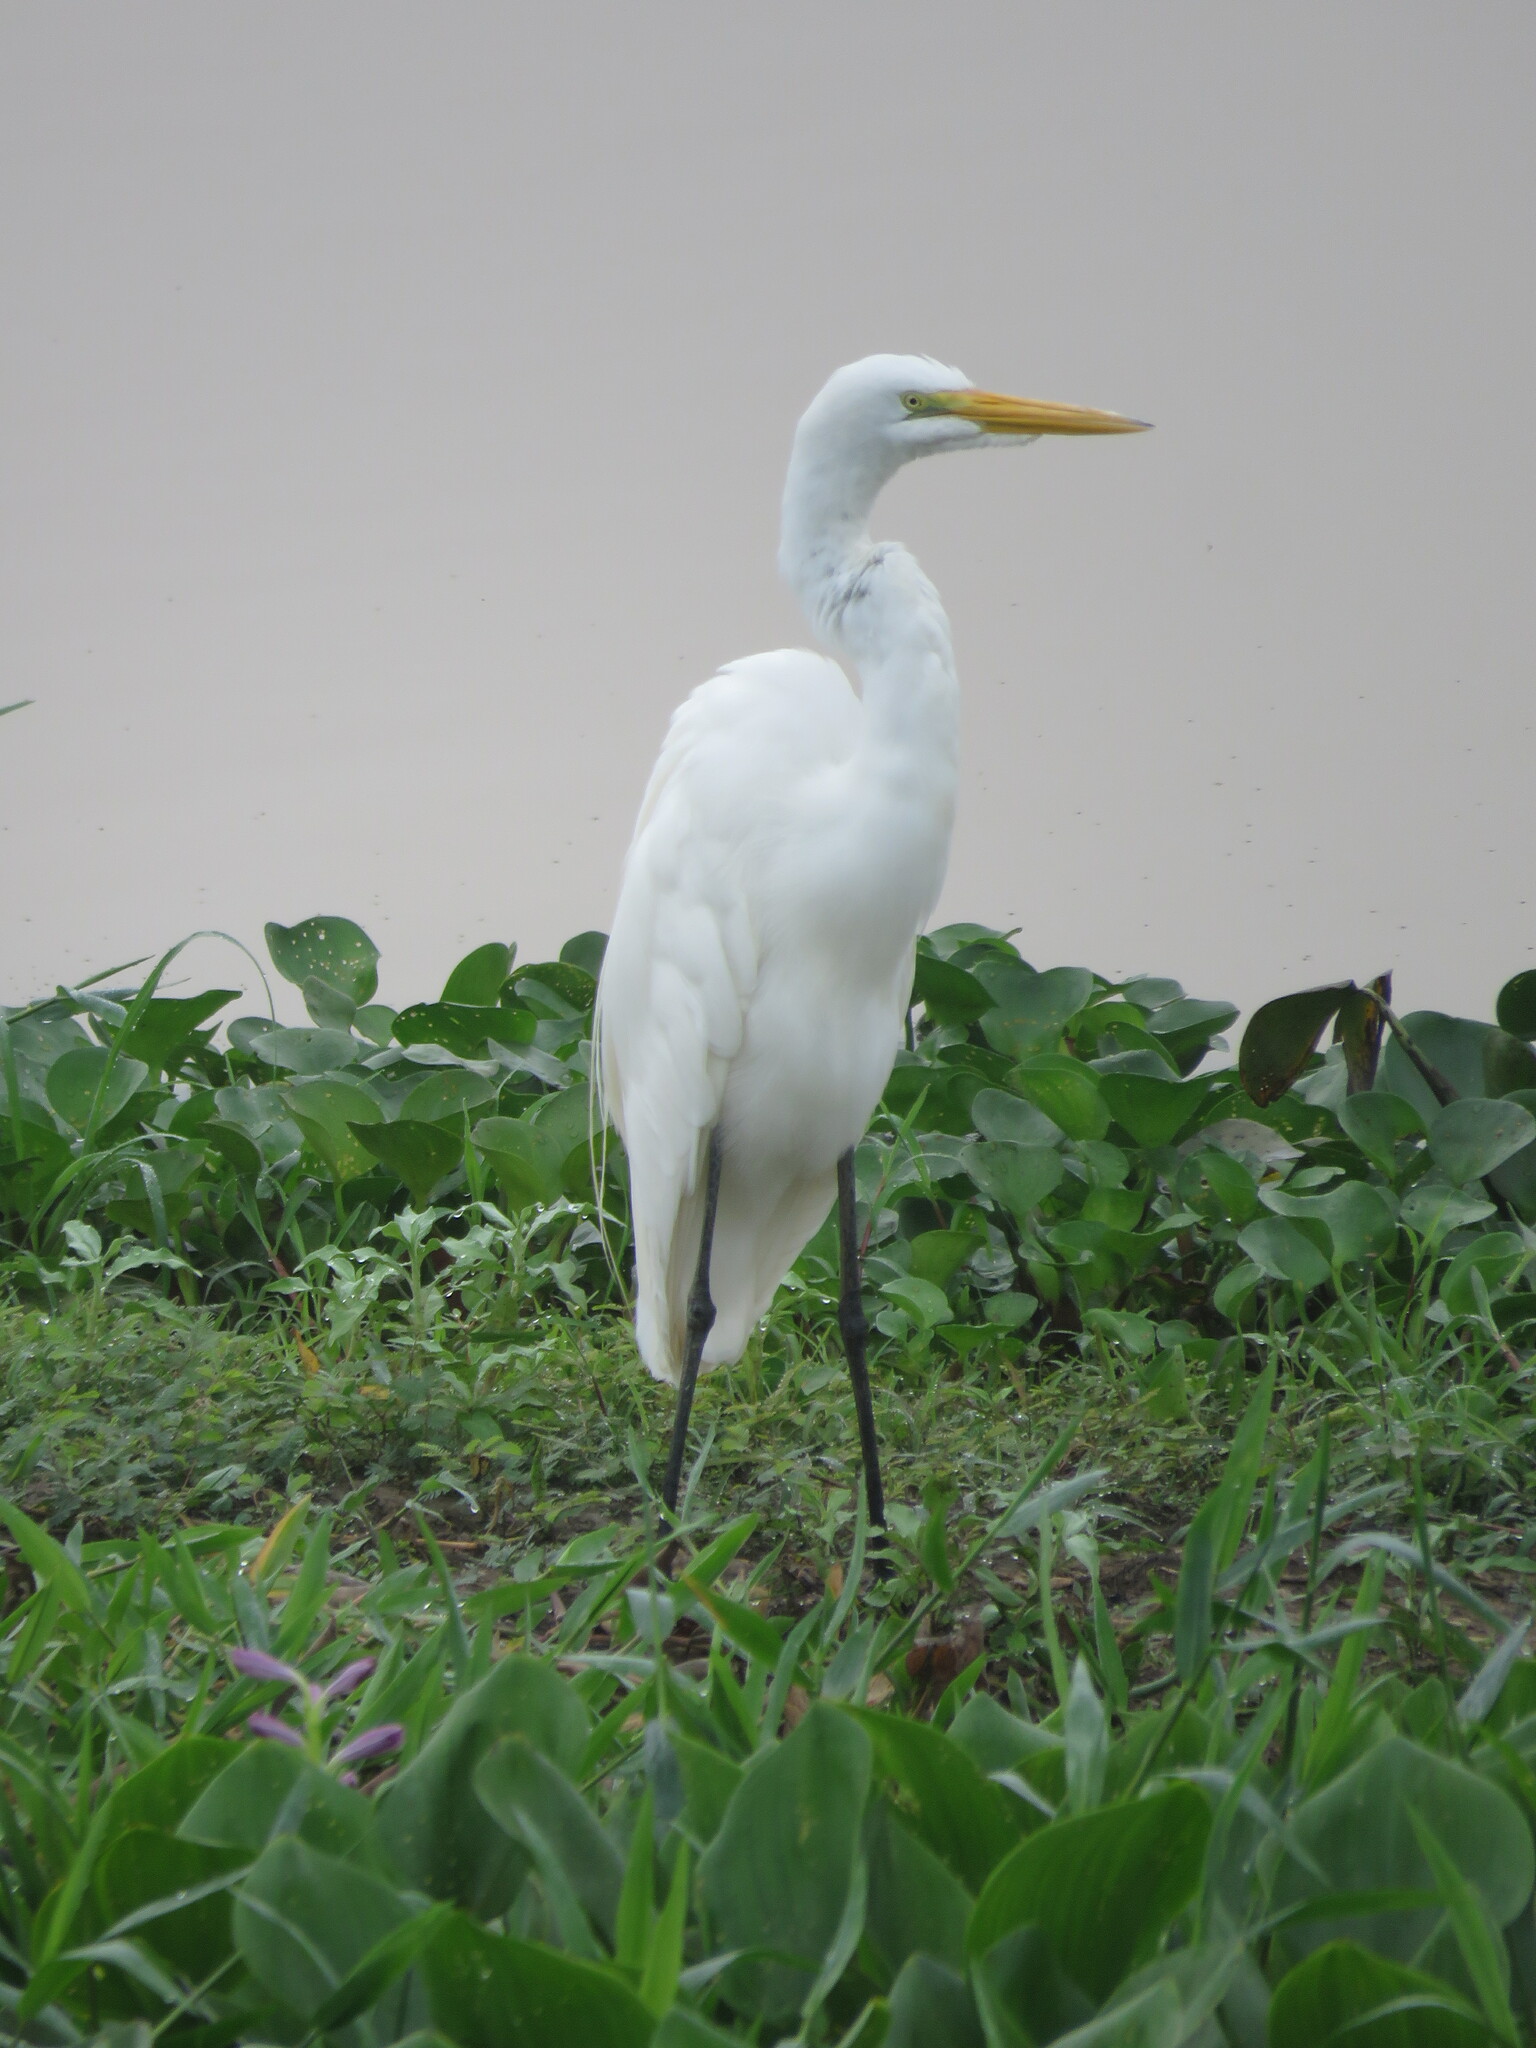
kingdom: Animalia
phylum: Chordata
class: Aves
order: Pelecaniformes
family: Ardeidae
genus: Ardea
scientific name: Ardea alba
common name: Great egret
